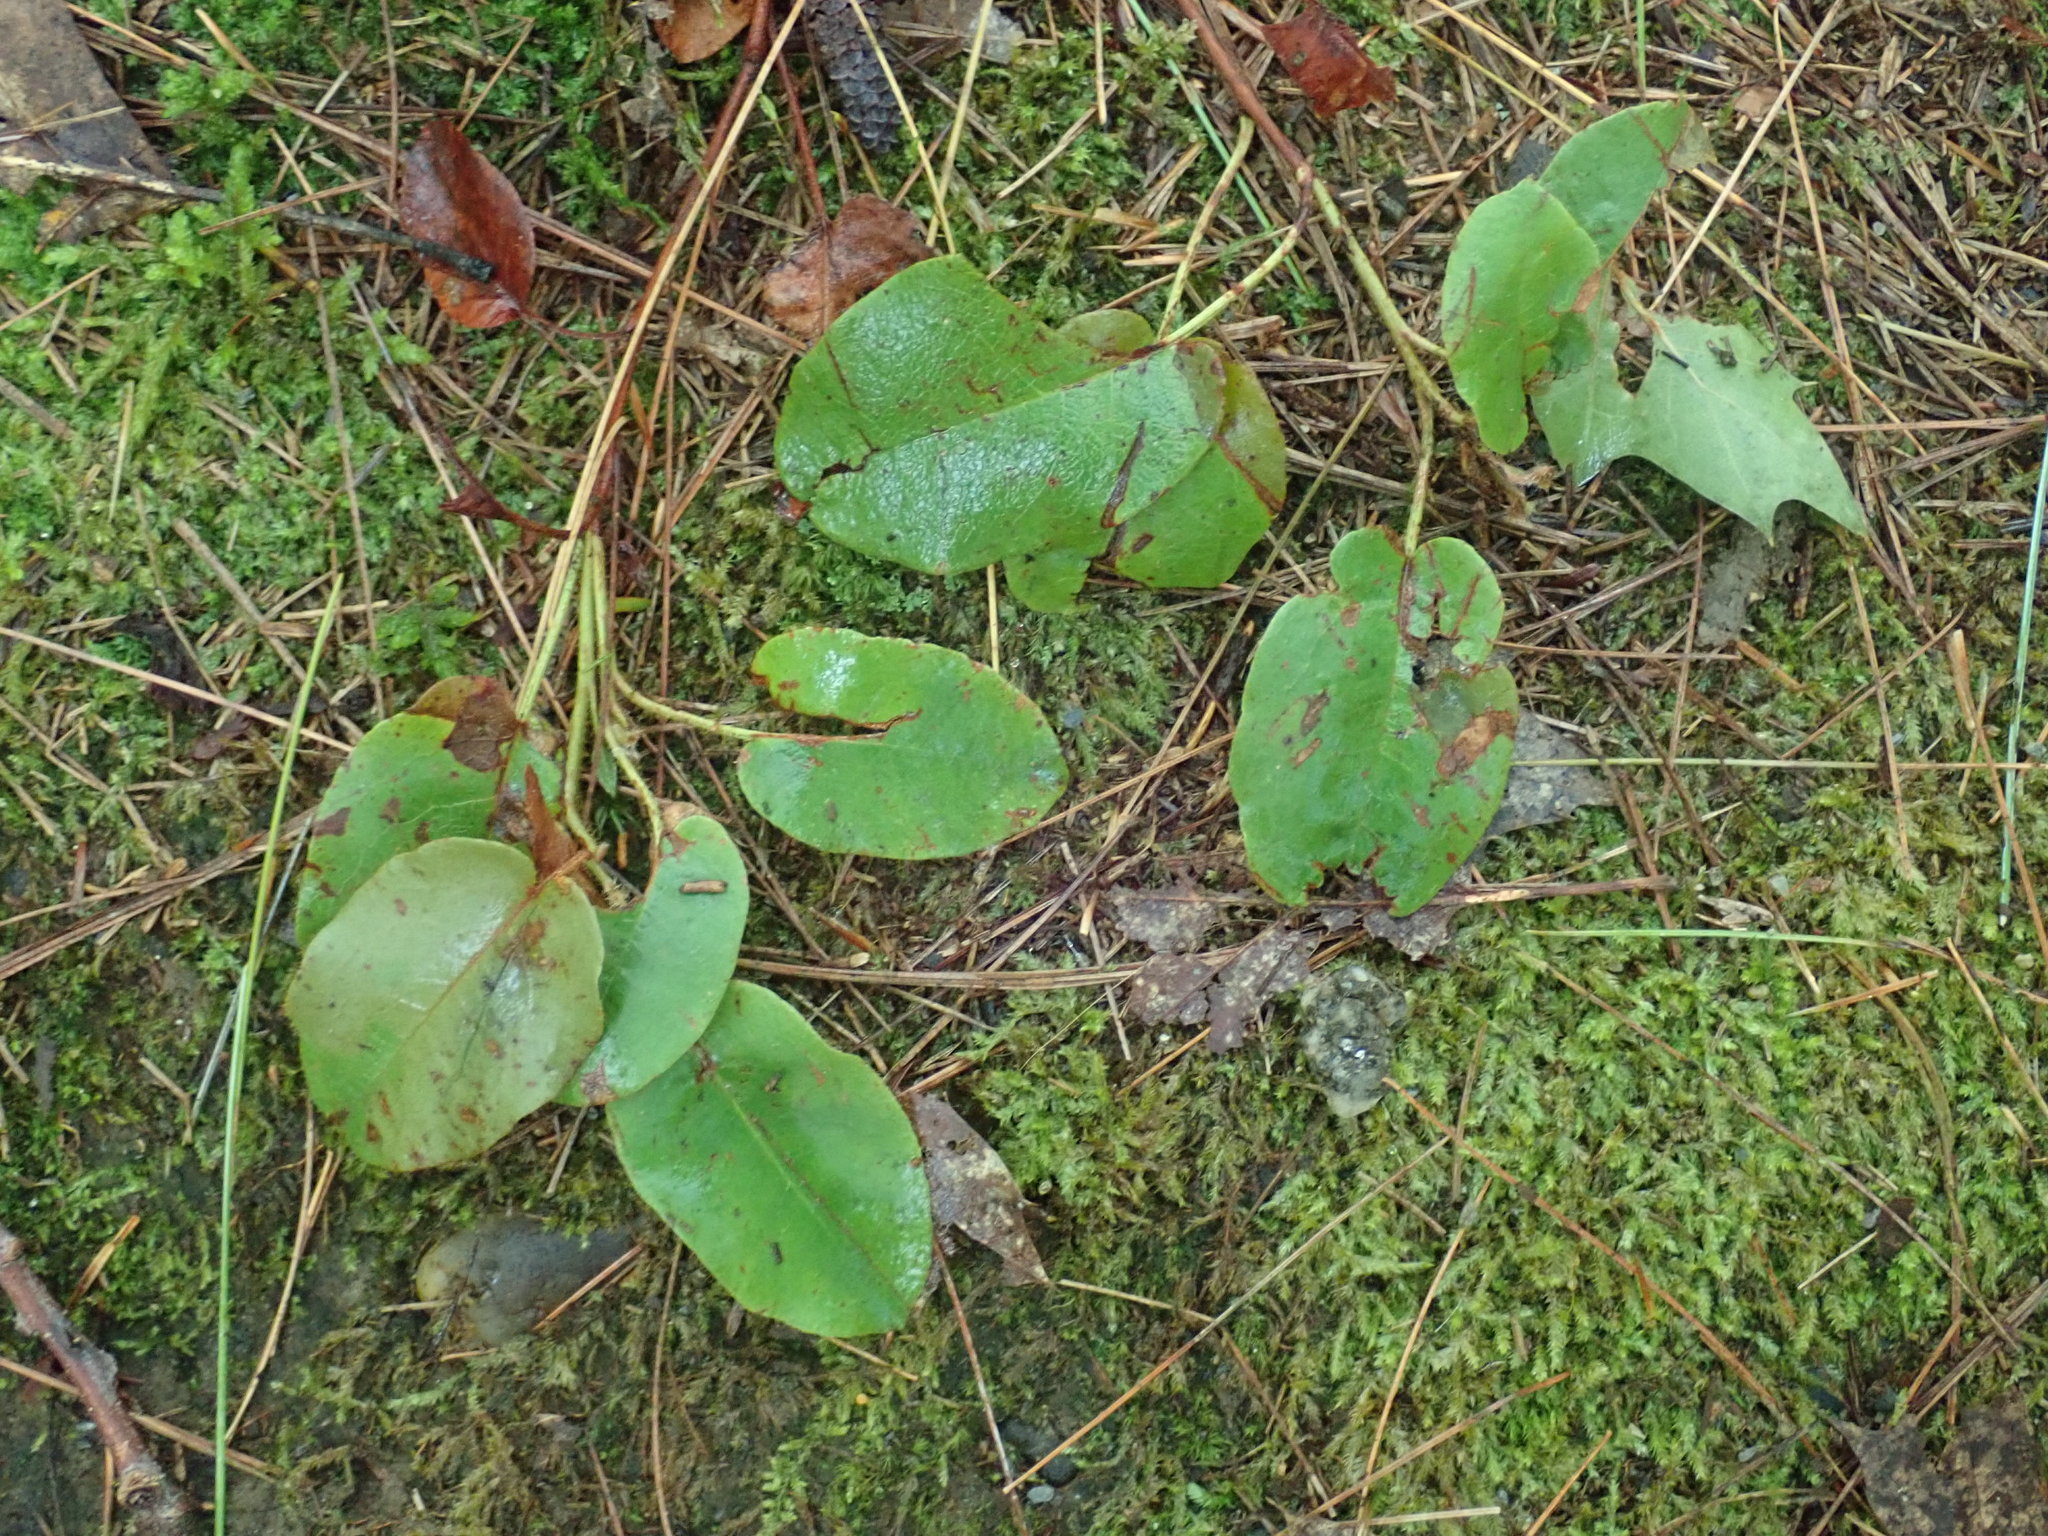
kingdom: Plantae
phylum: Tracheophyta
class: Magnoliopsida
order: Ericales
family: Ericaceae
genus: Epigaea
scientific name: Epigaea repens
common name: Gravelroot
